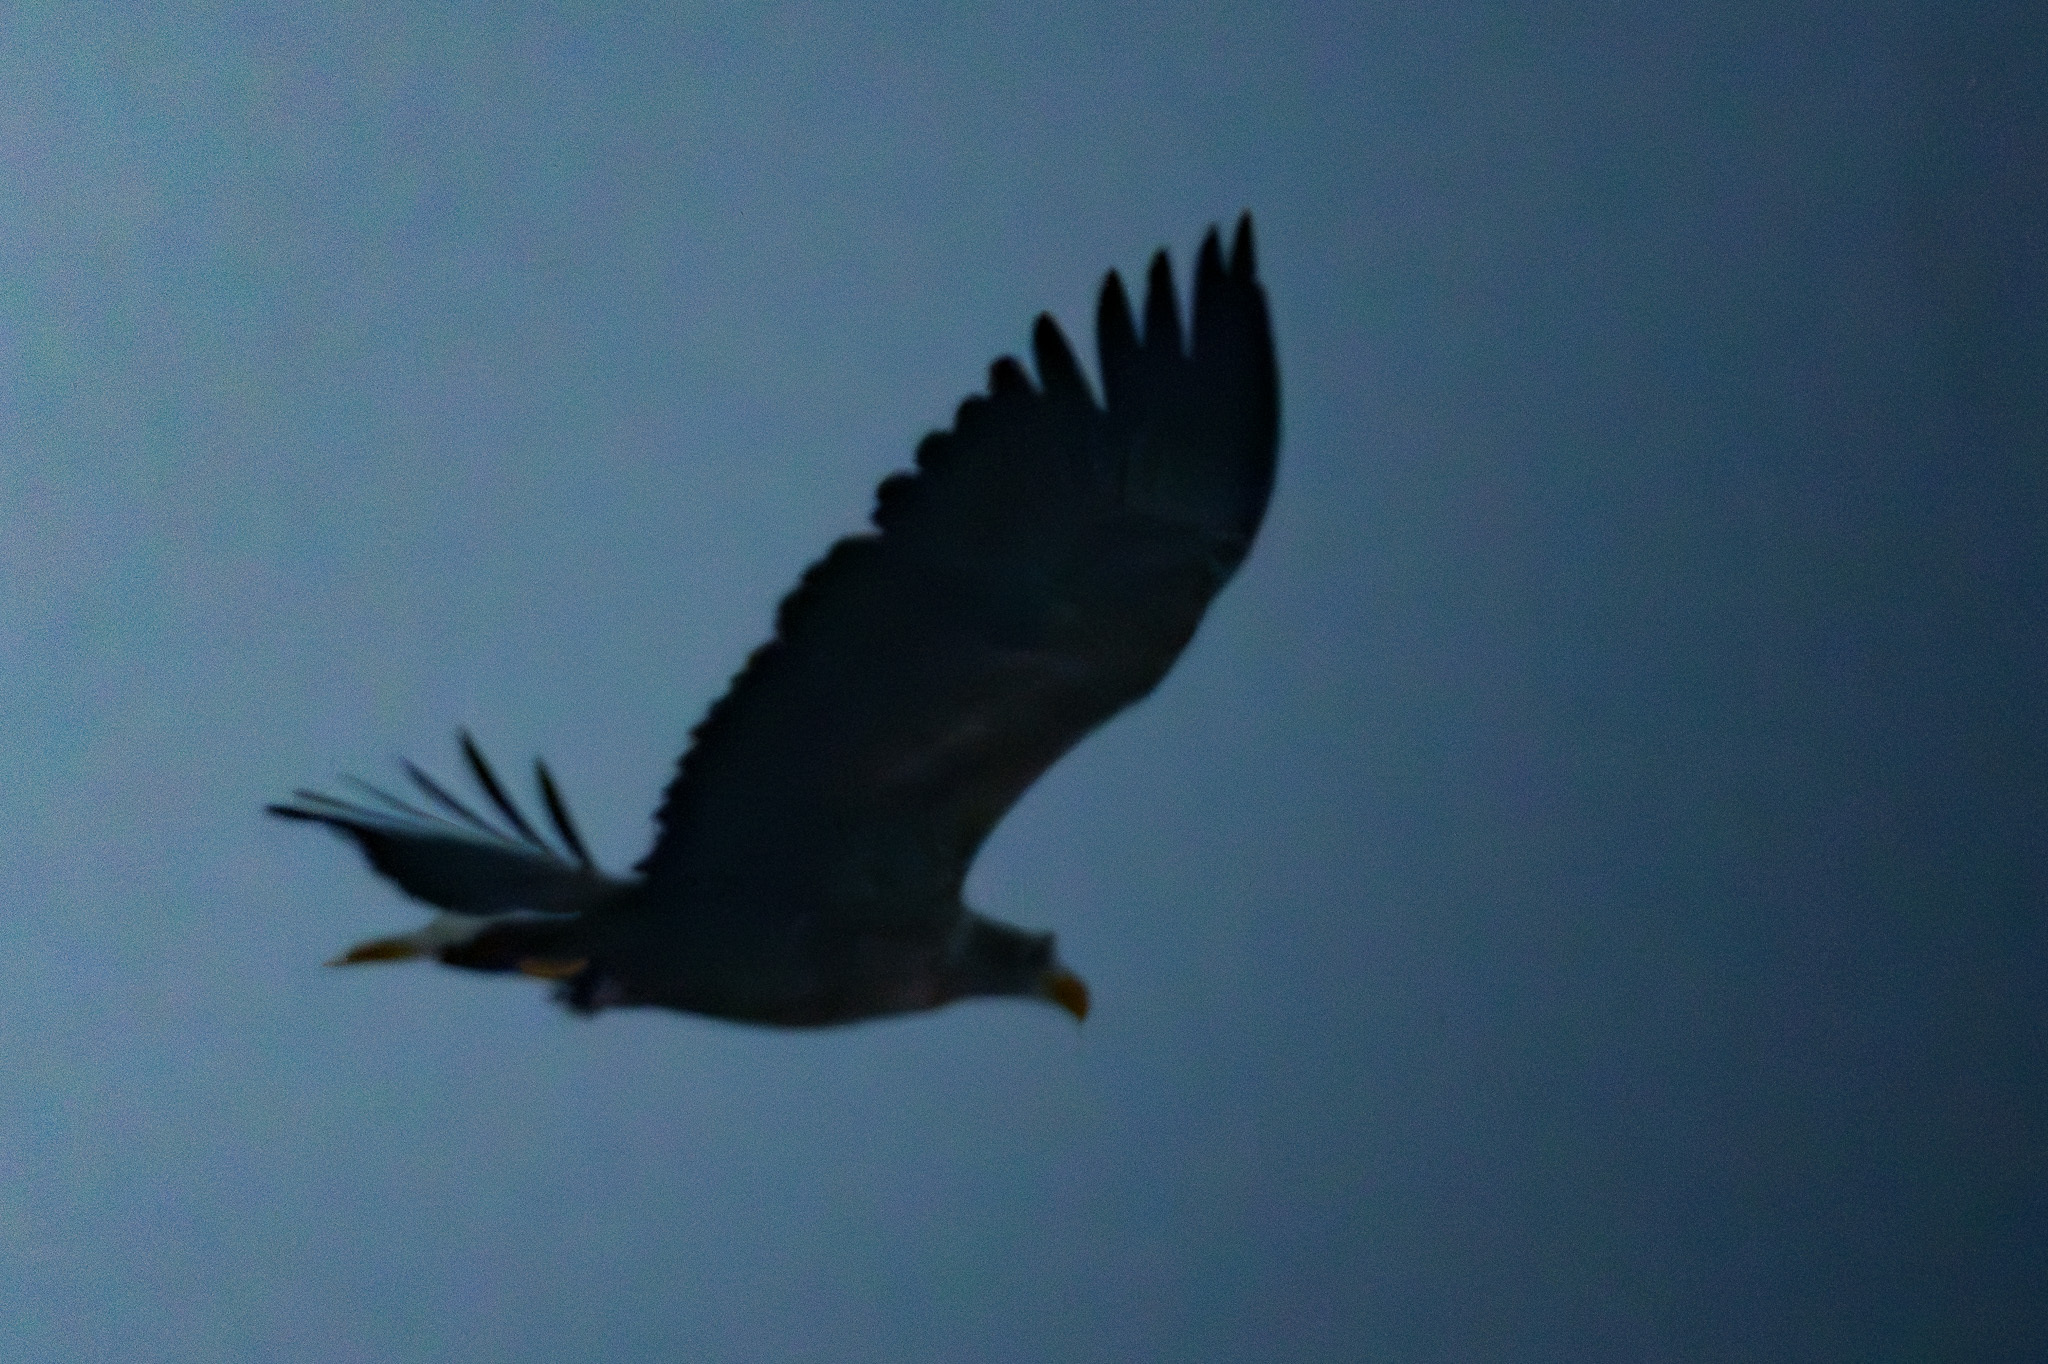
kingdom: Animalia
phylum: Chordata
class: Aves
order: Accipitriformes
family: Accipitridae
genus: Haliaeetus
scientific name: Haliaeetus albicilla
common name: White-tailed eagle
